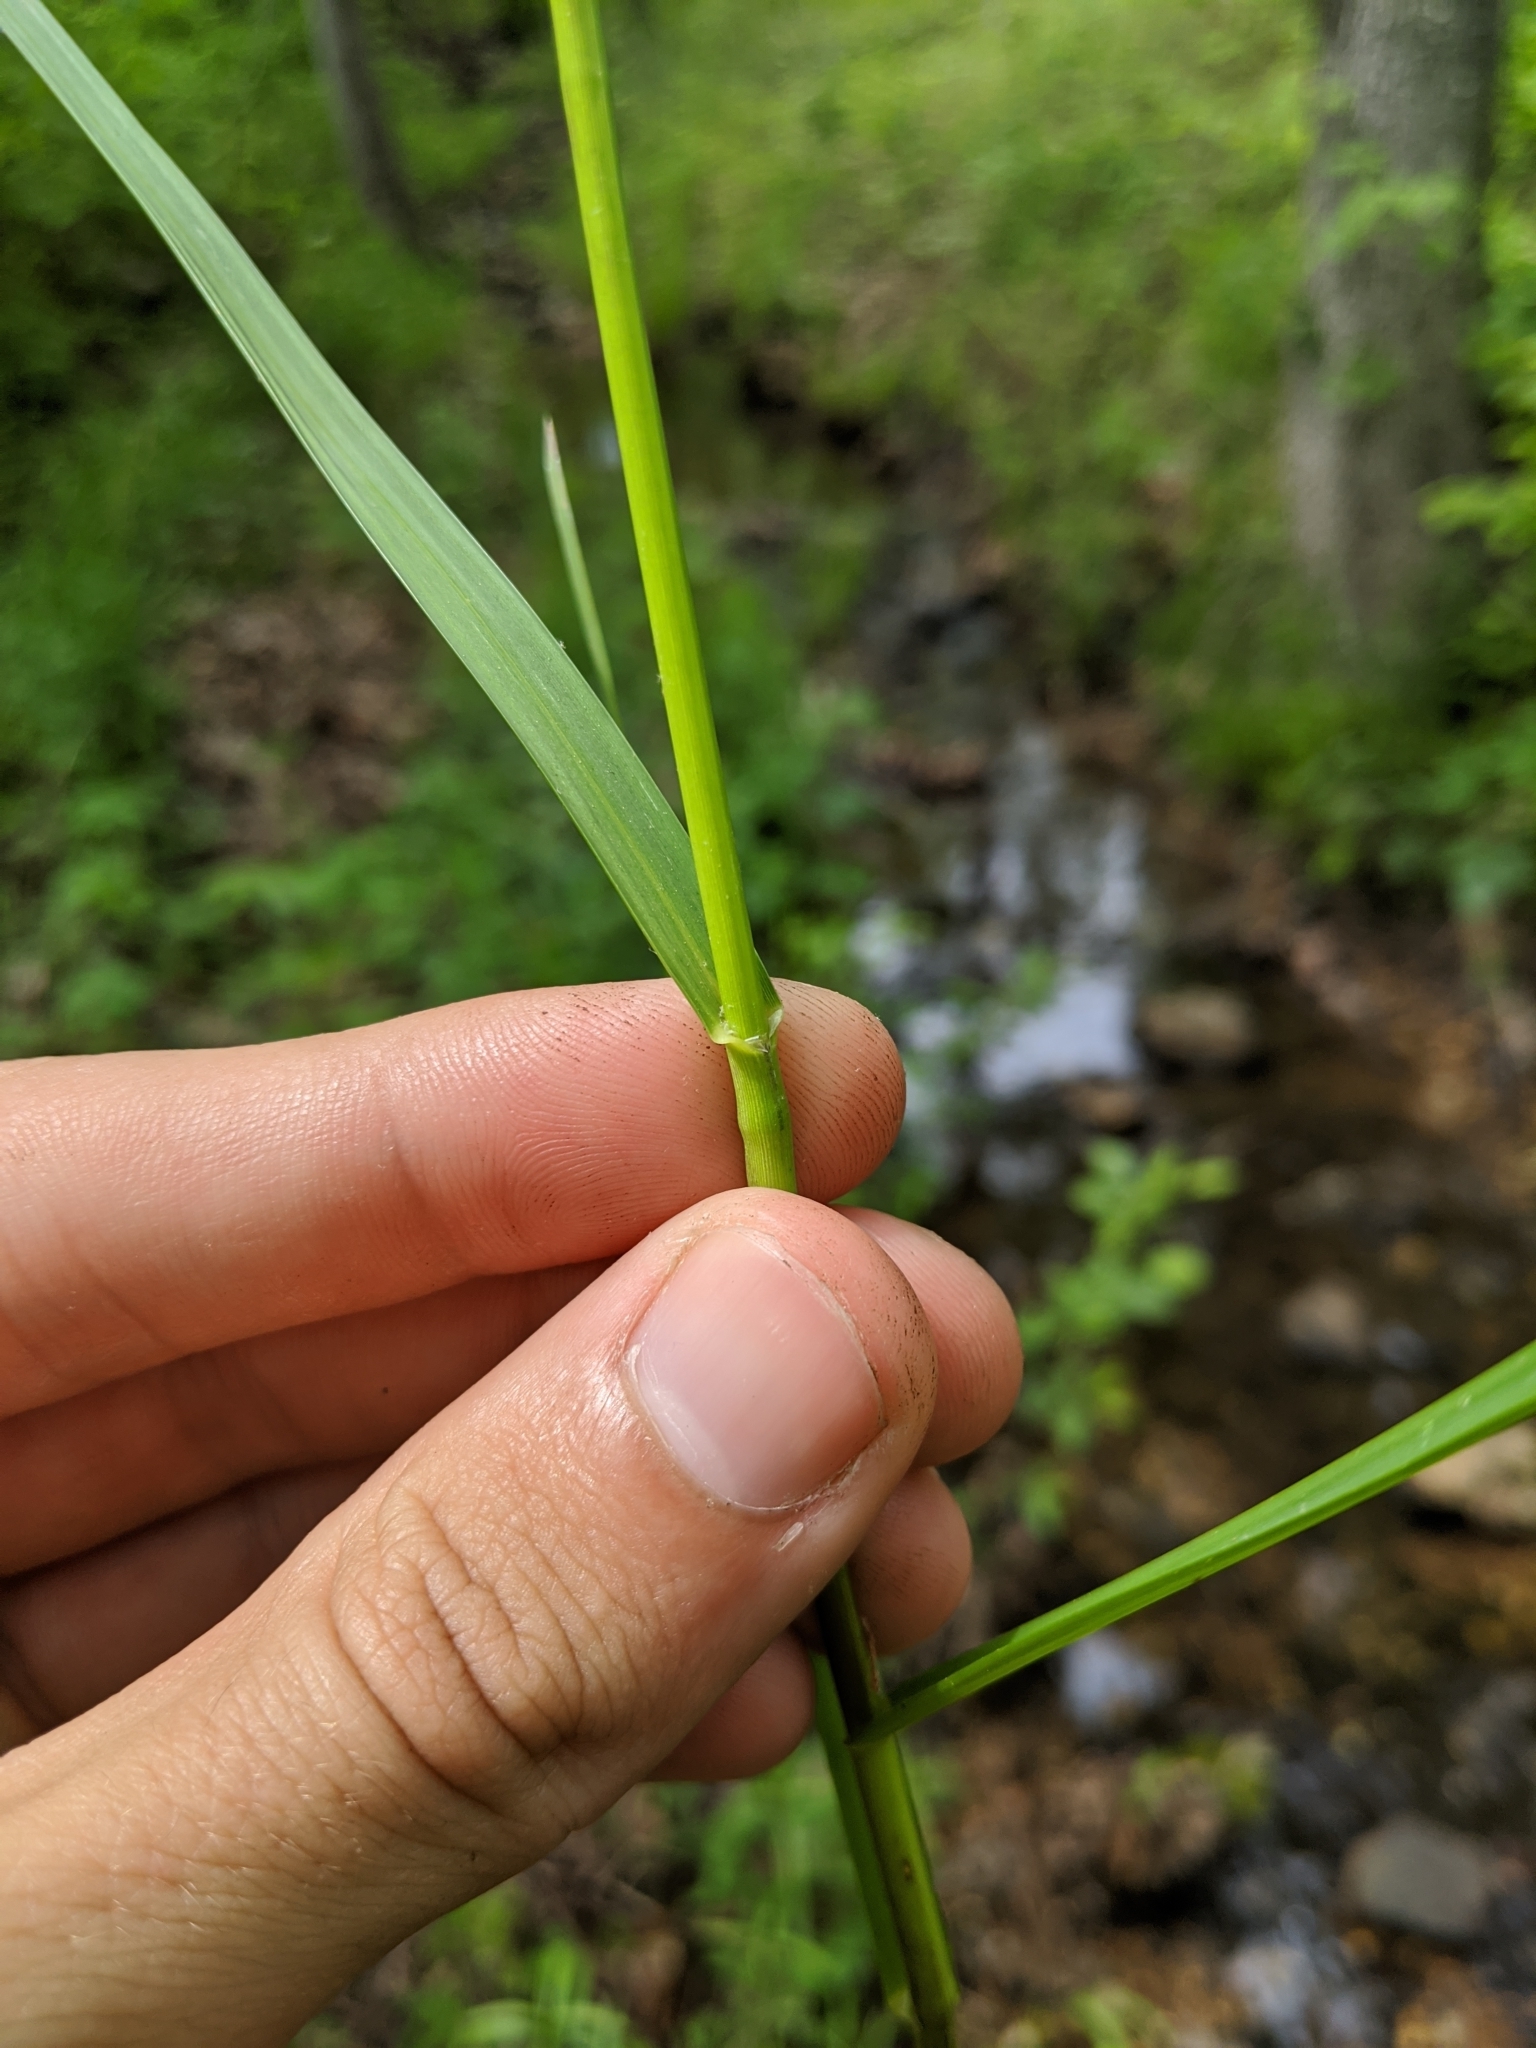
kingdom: Plantae
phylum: Tracheophyta
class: Liliopsida
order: Poales
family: Poaceae
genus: Glyceria
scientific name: Glyceria striata
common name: Fowl manna grass
